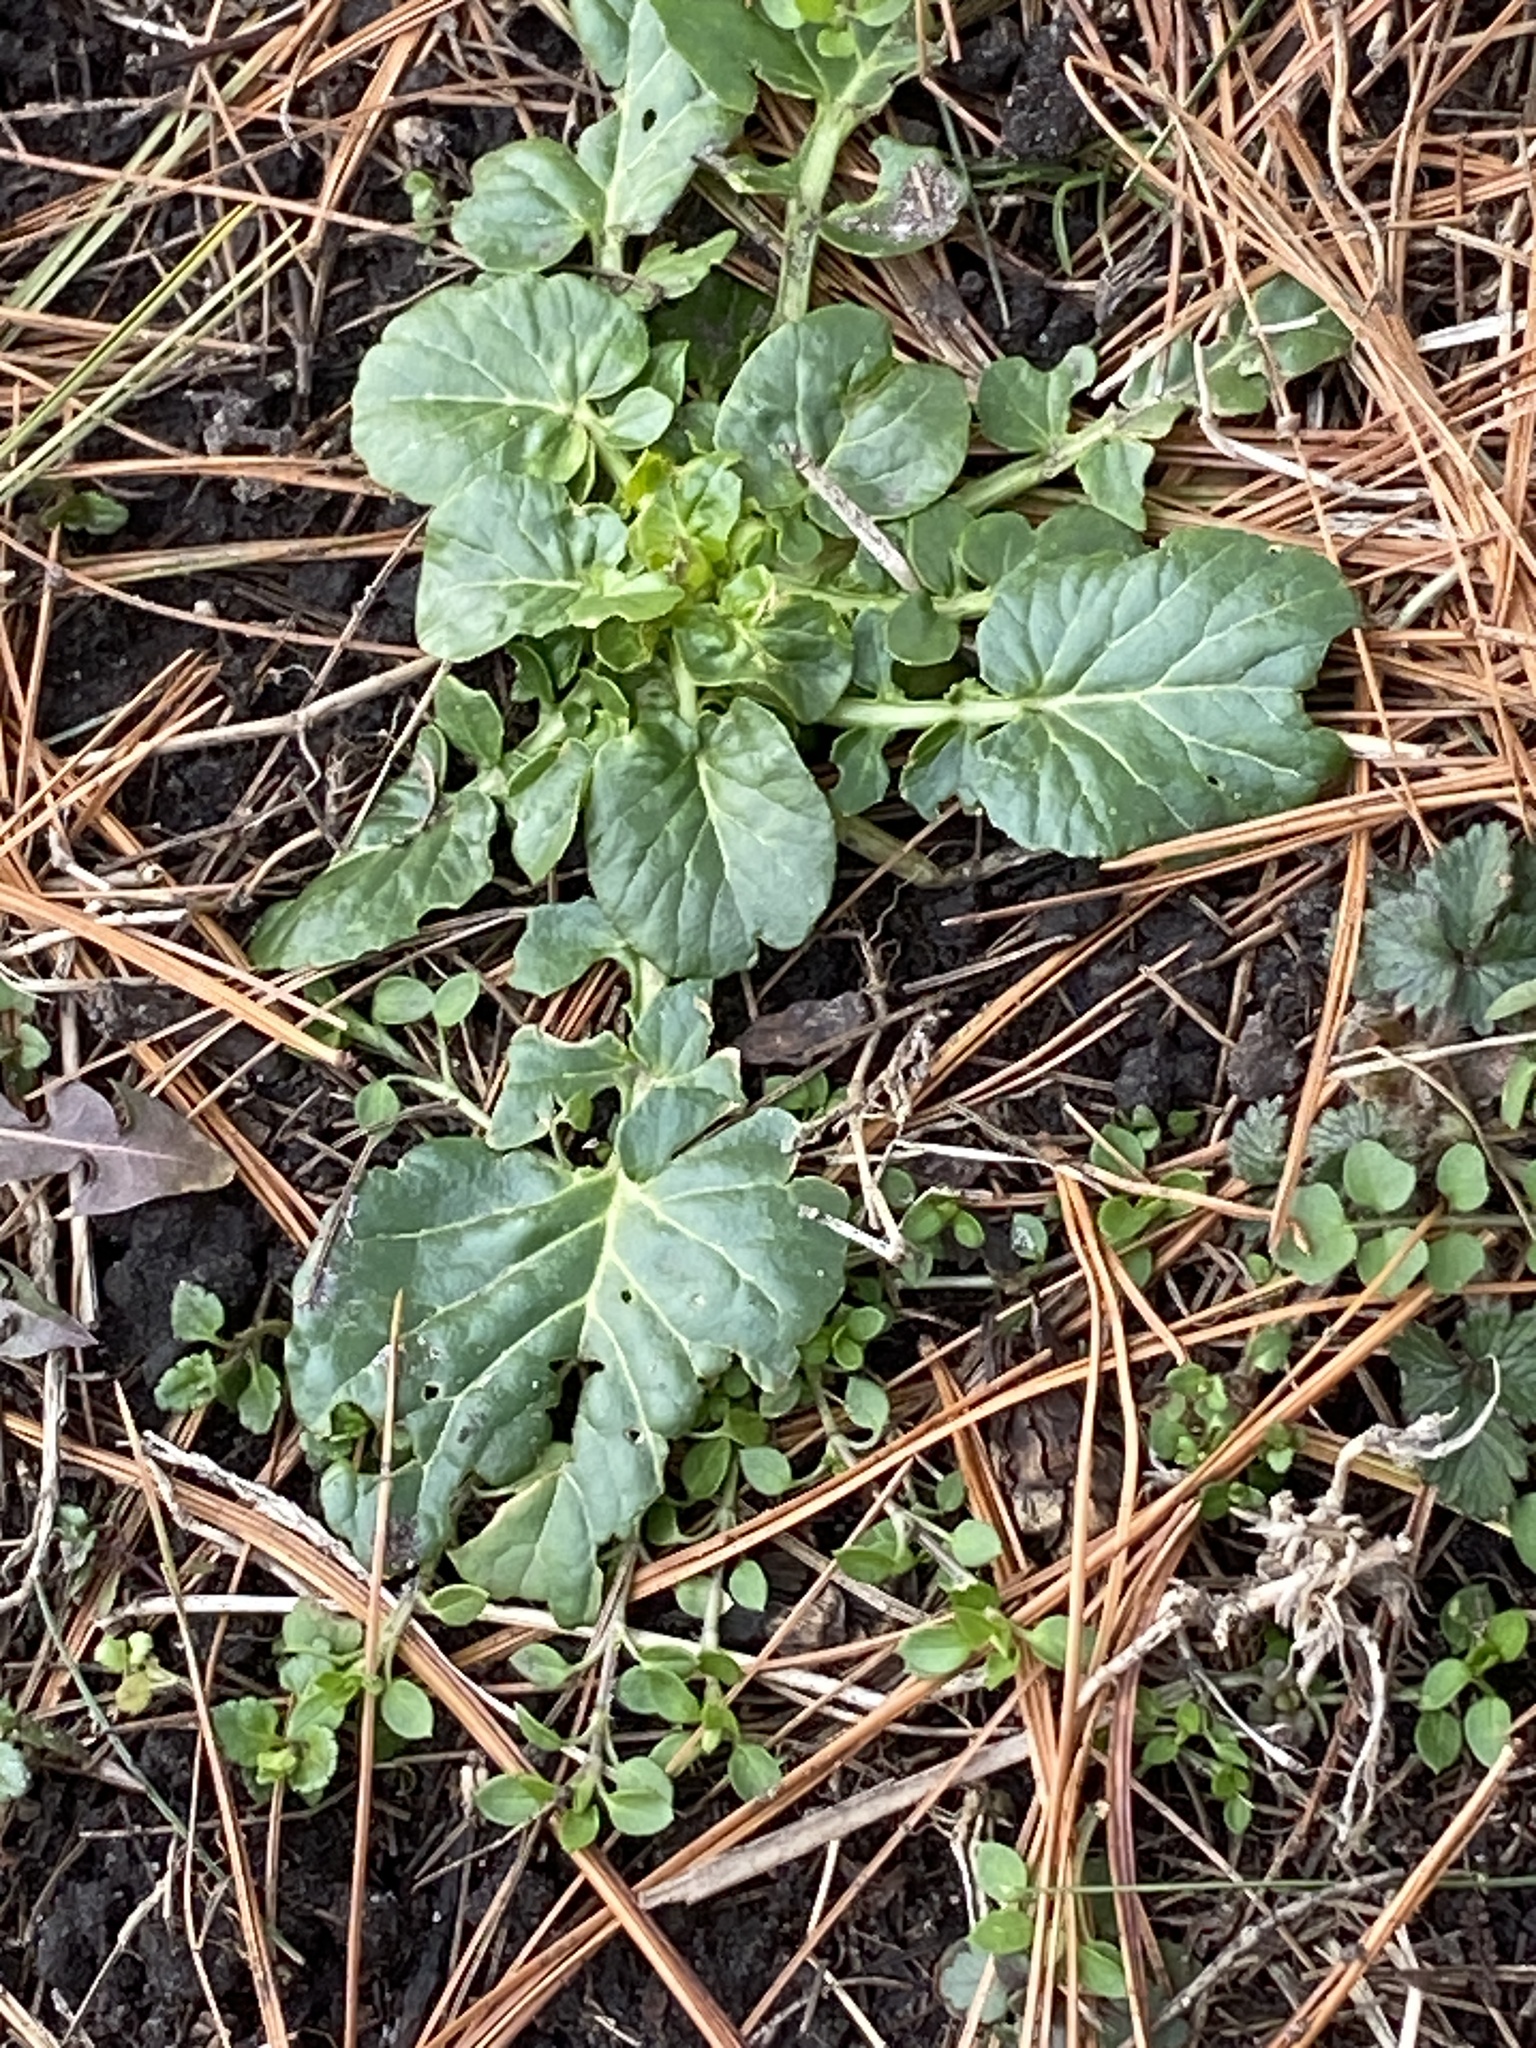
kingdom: Plantae
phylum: Tracheophyta
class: Magnoliopsida
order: Brassicales
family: Brassicaceae
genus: Barbarea
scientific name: Barbarea vulgaris
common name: Cressy-greens
